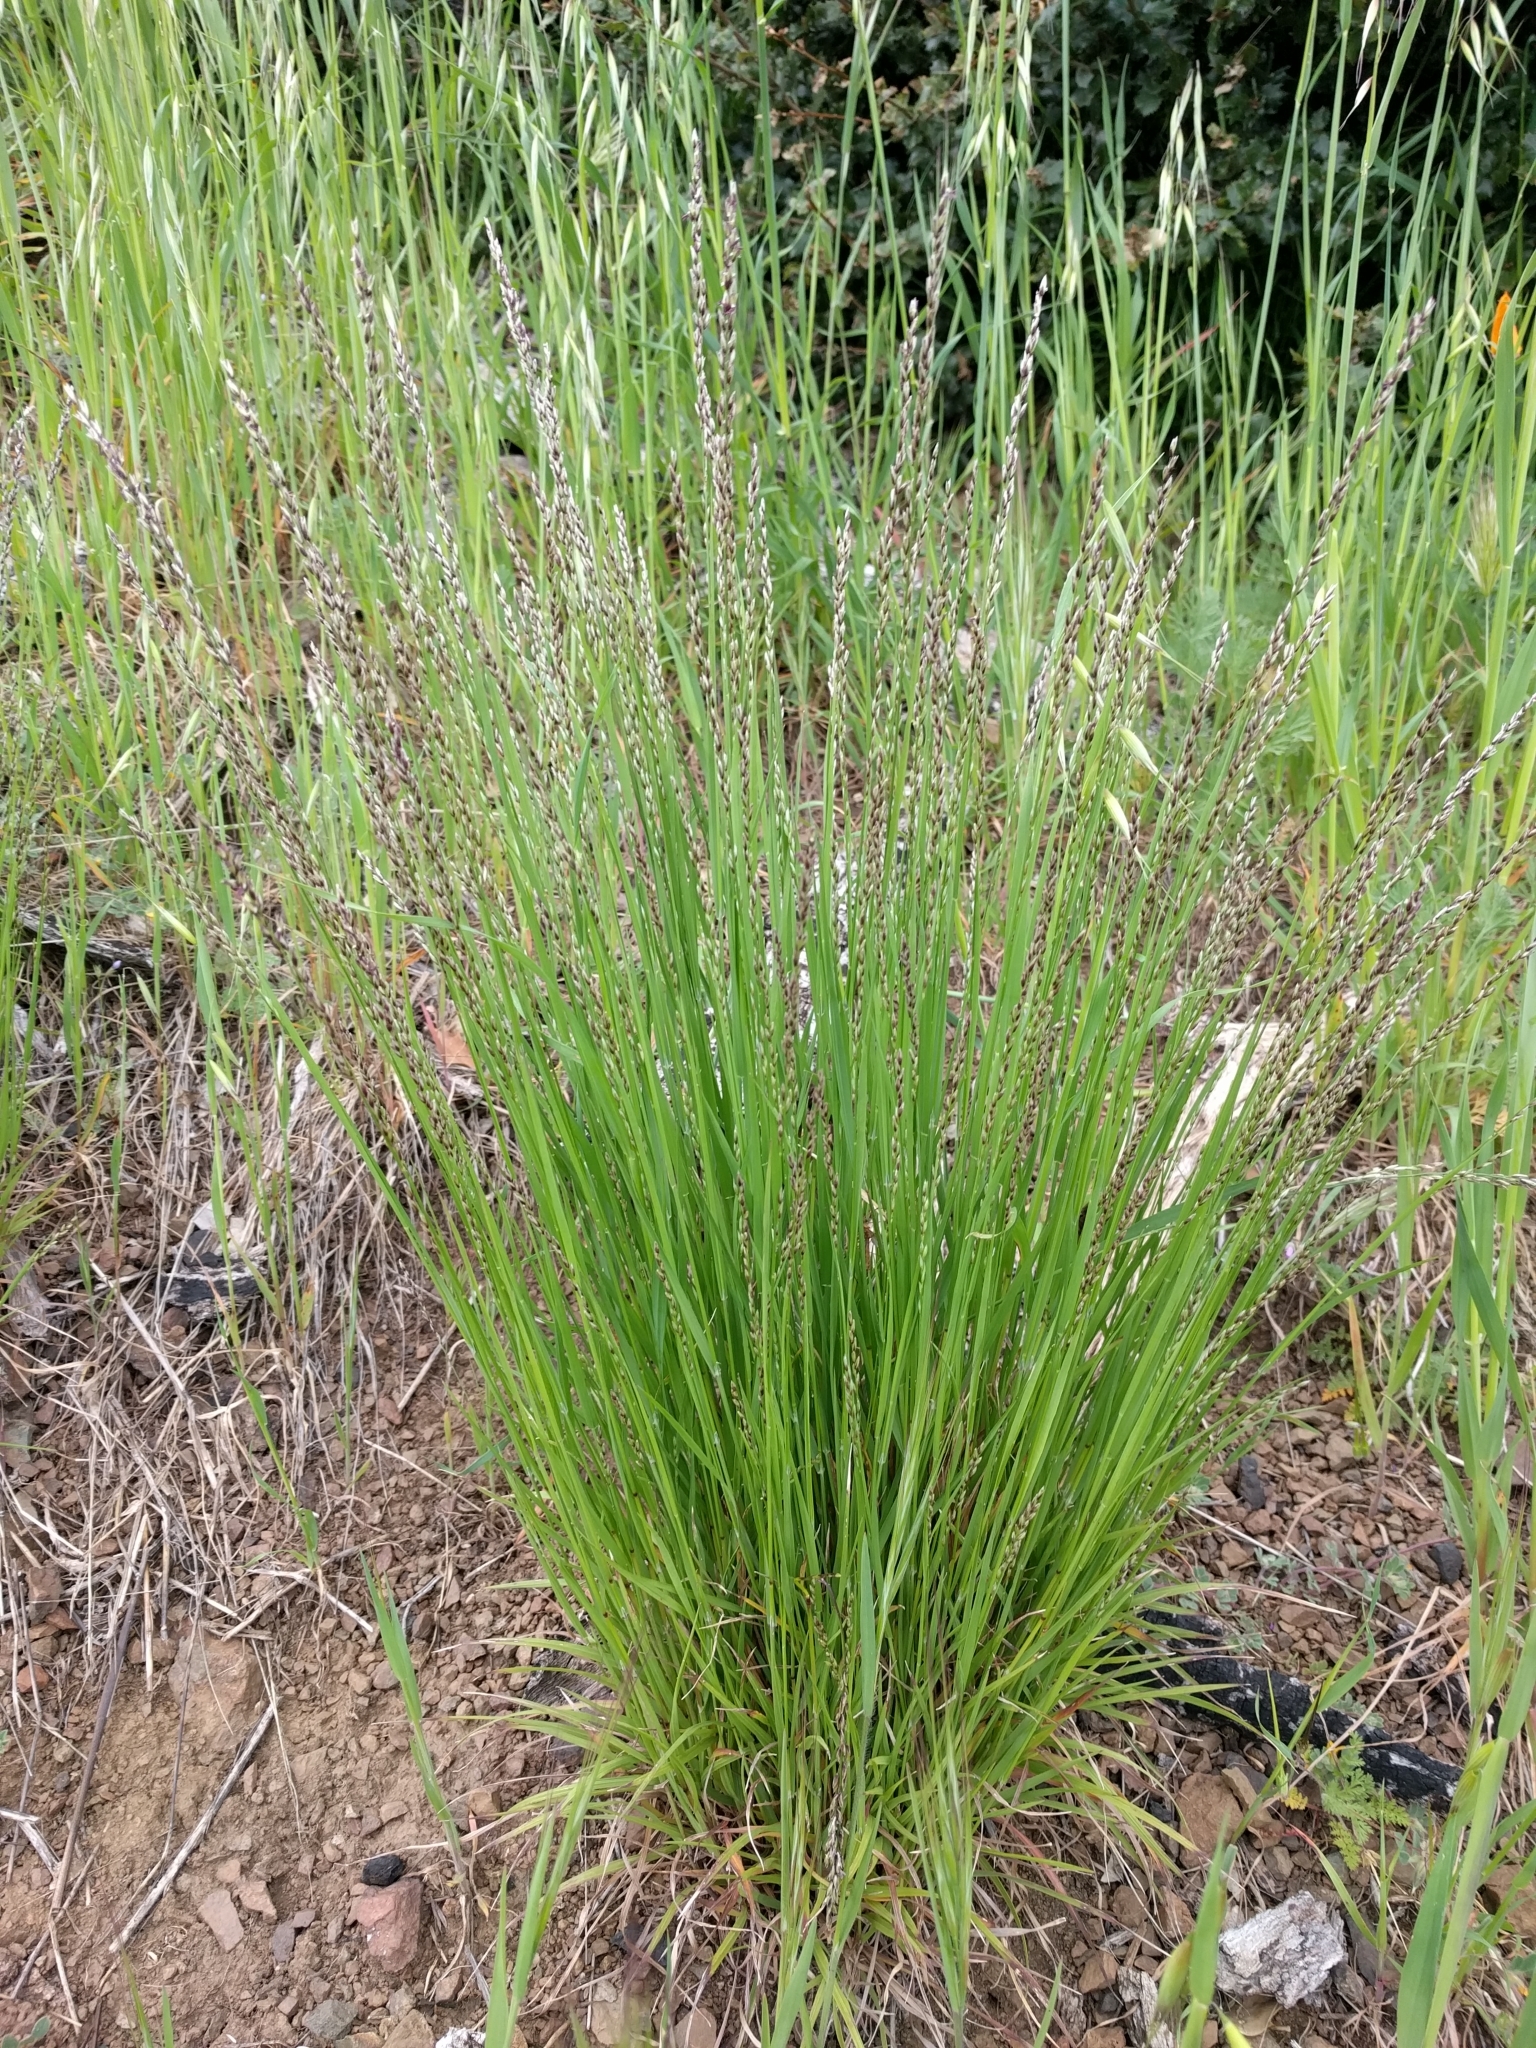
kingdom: Plantae
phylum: Tracheophyta
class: Liliopsida
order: Poales
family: Poaceae
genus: Melica
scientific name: Melica torreyana
